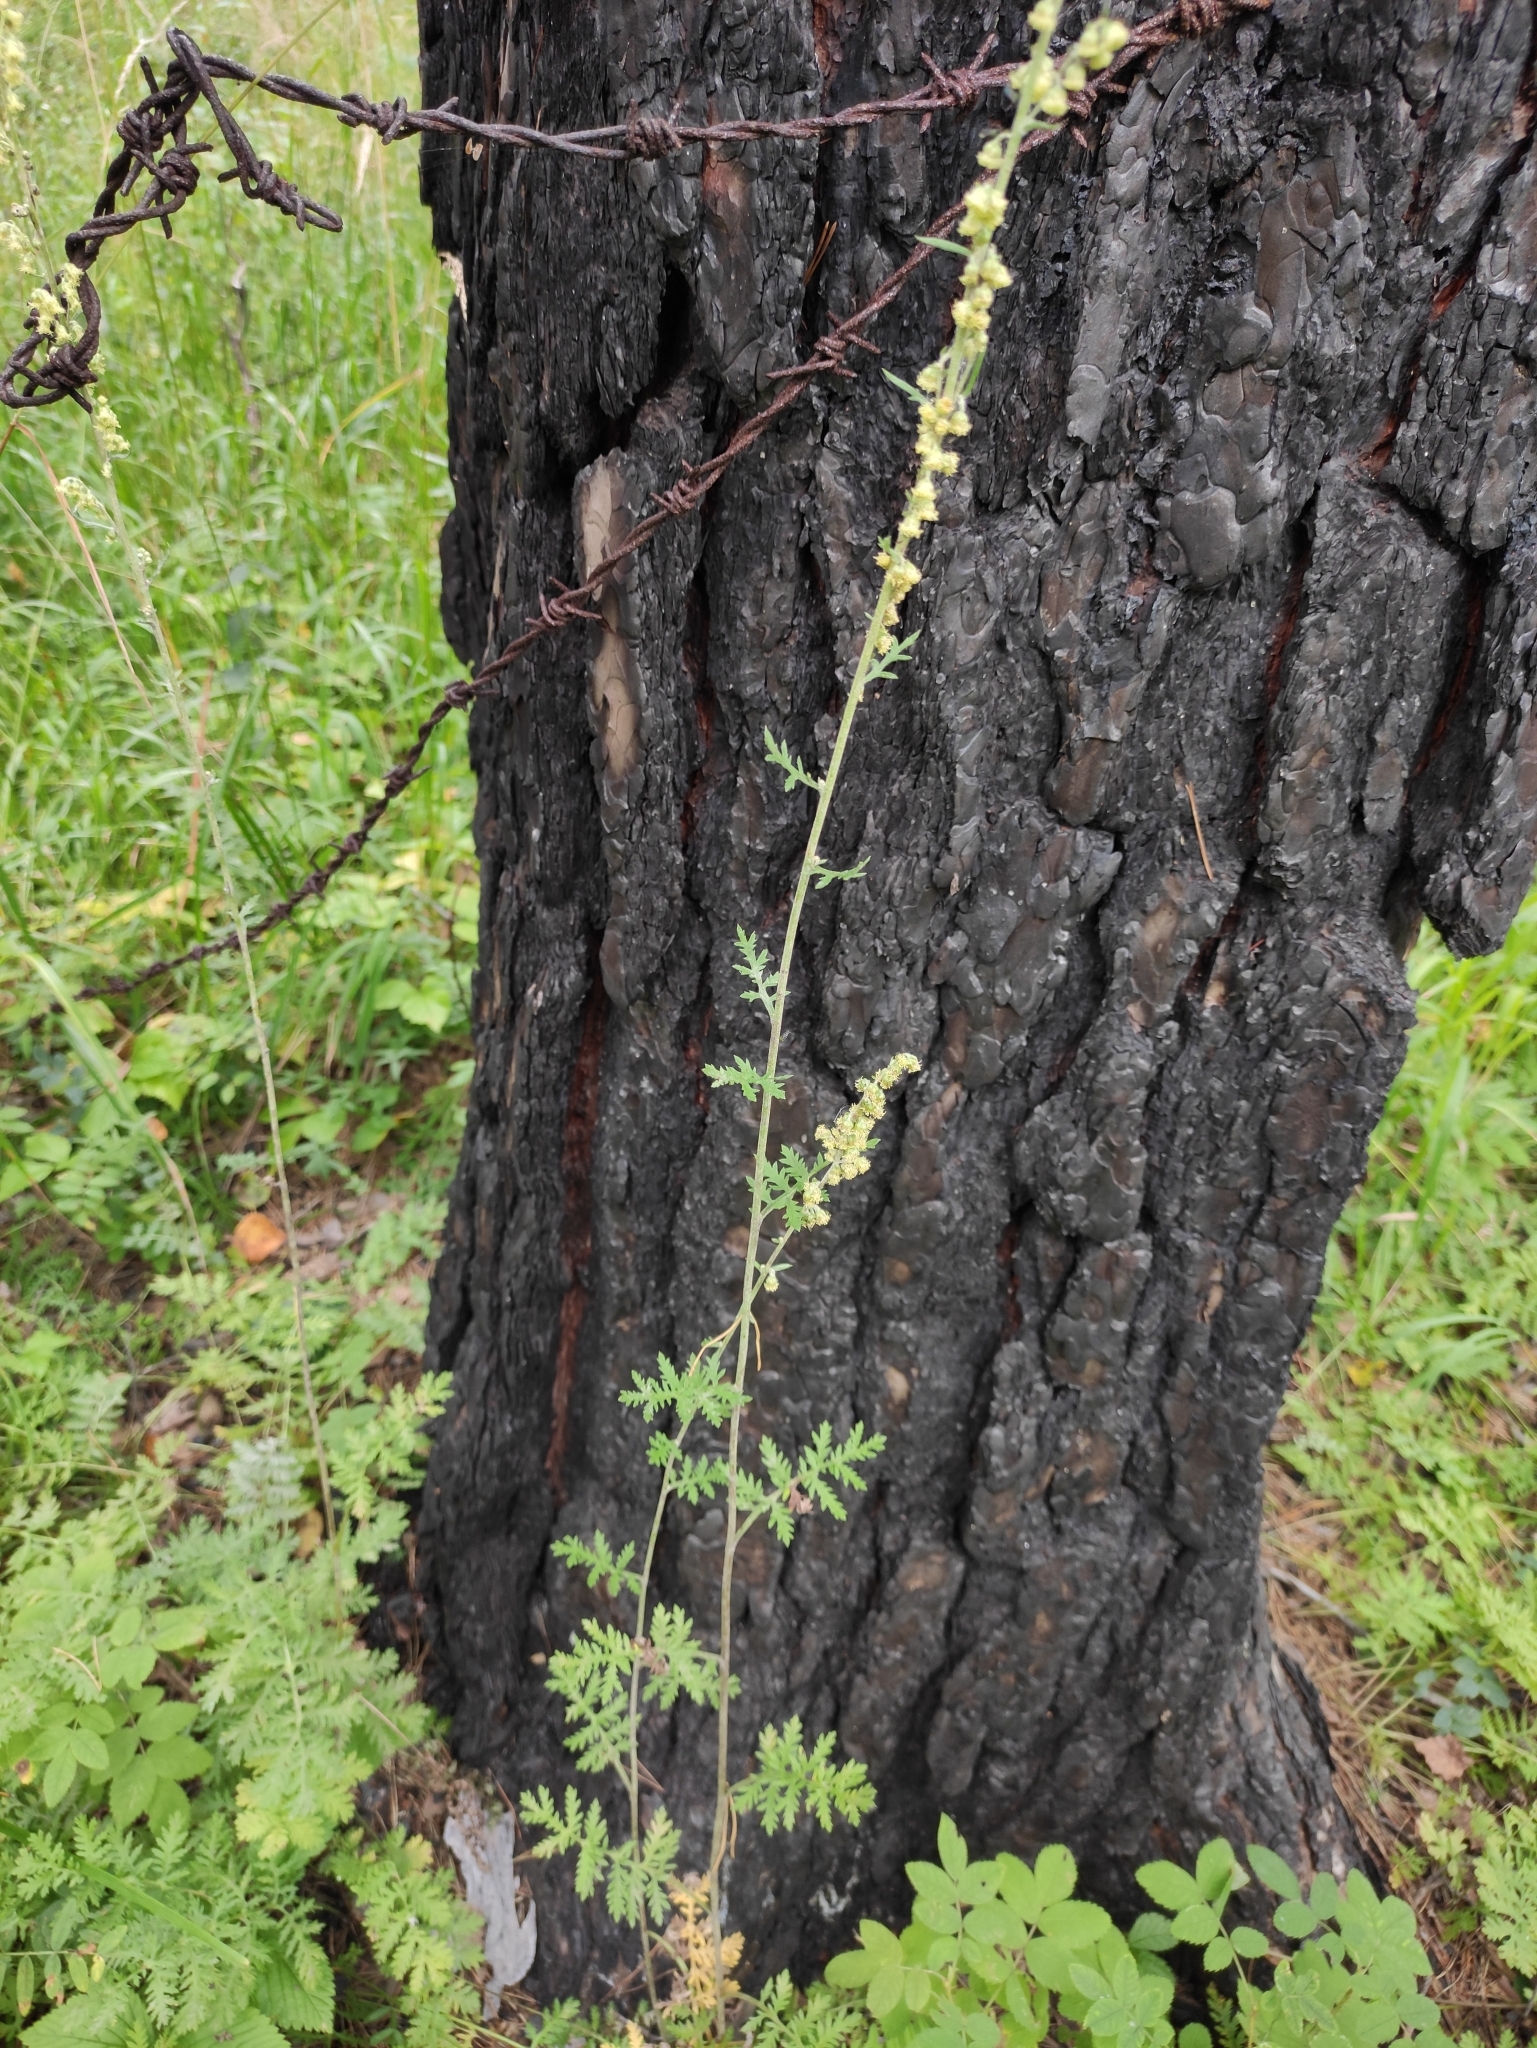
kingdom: Plantae
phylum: Tracheophyta
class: Magnoliopsida
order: Asterales
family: Asteraceae
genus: Artemisia
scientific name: Artemisia tanacetifolia
